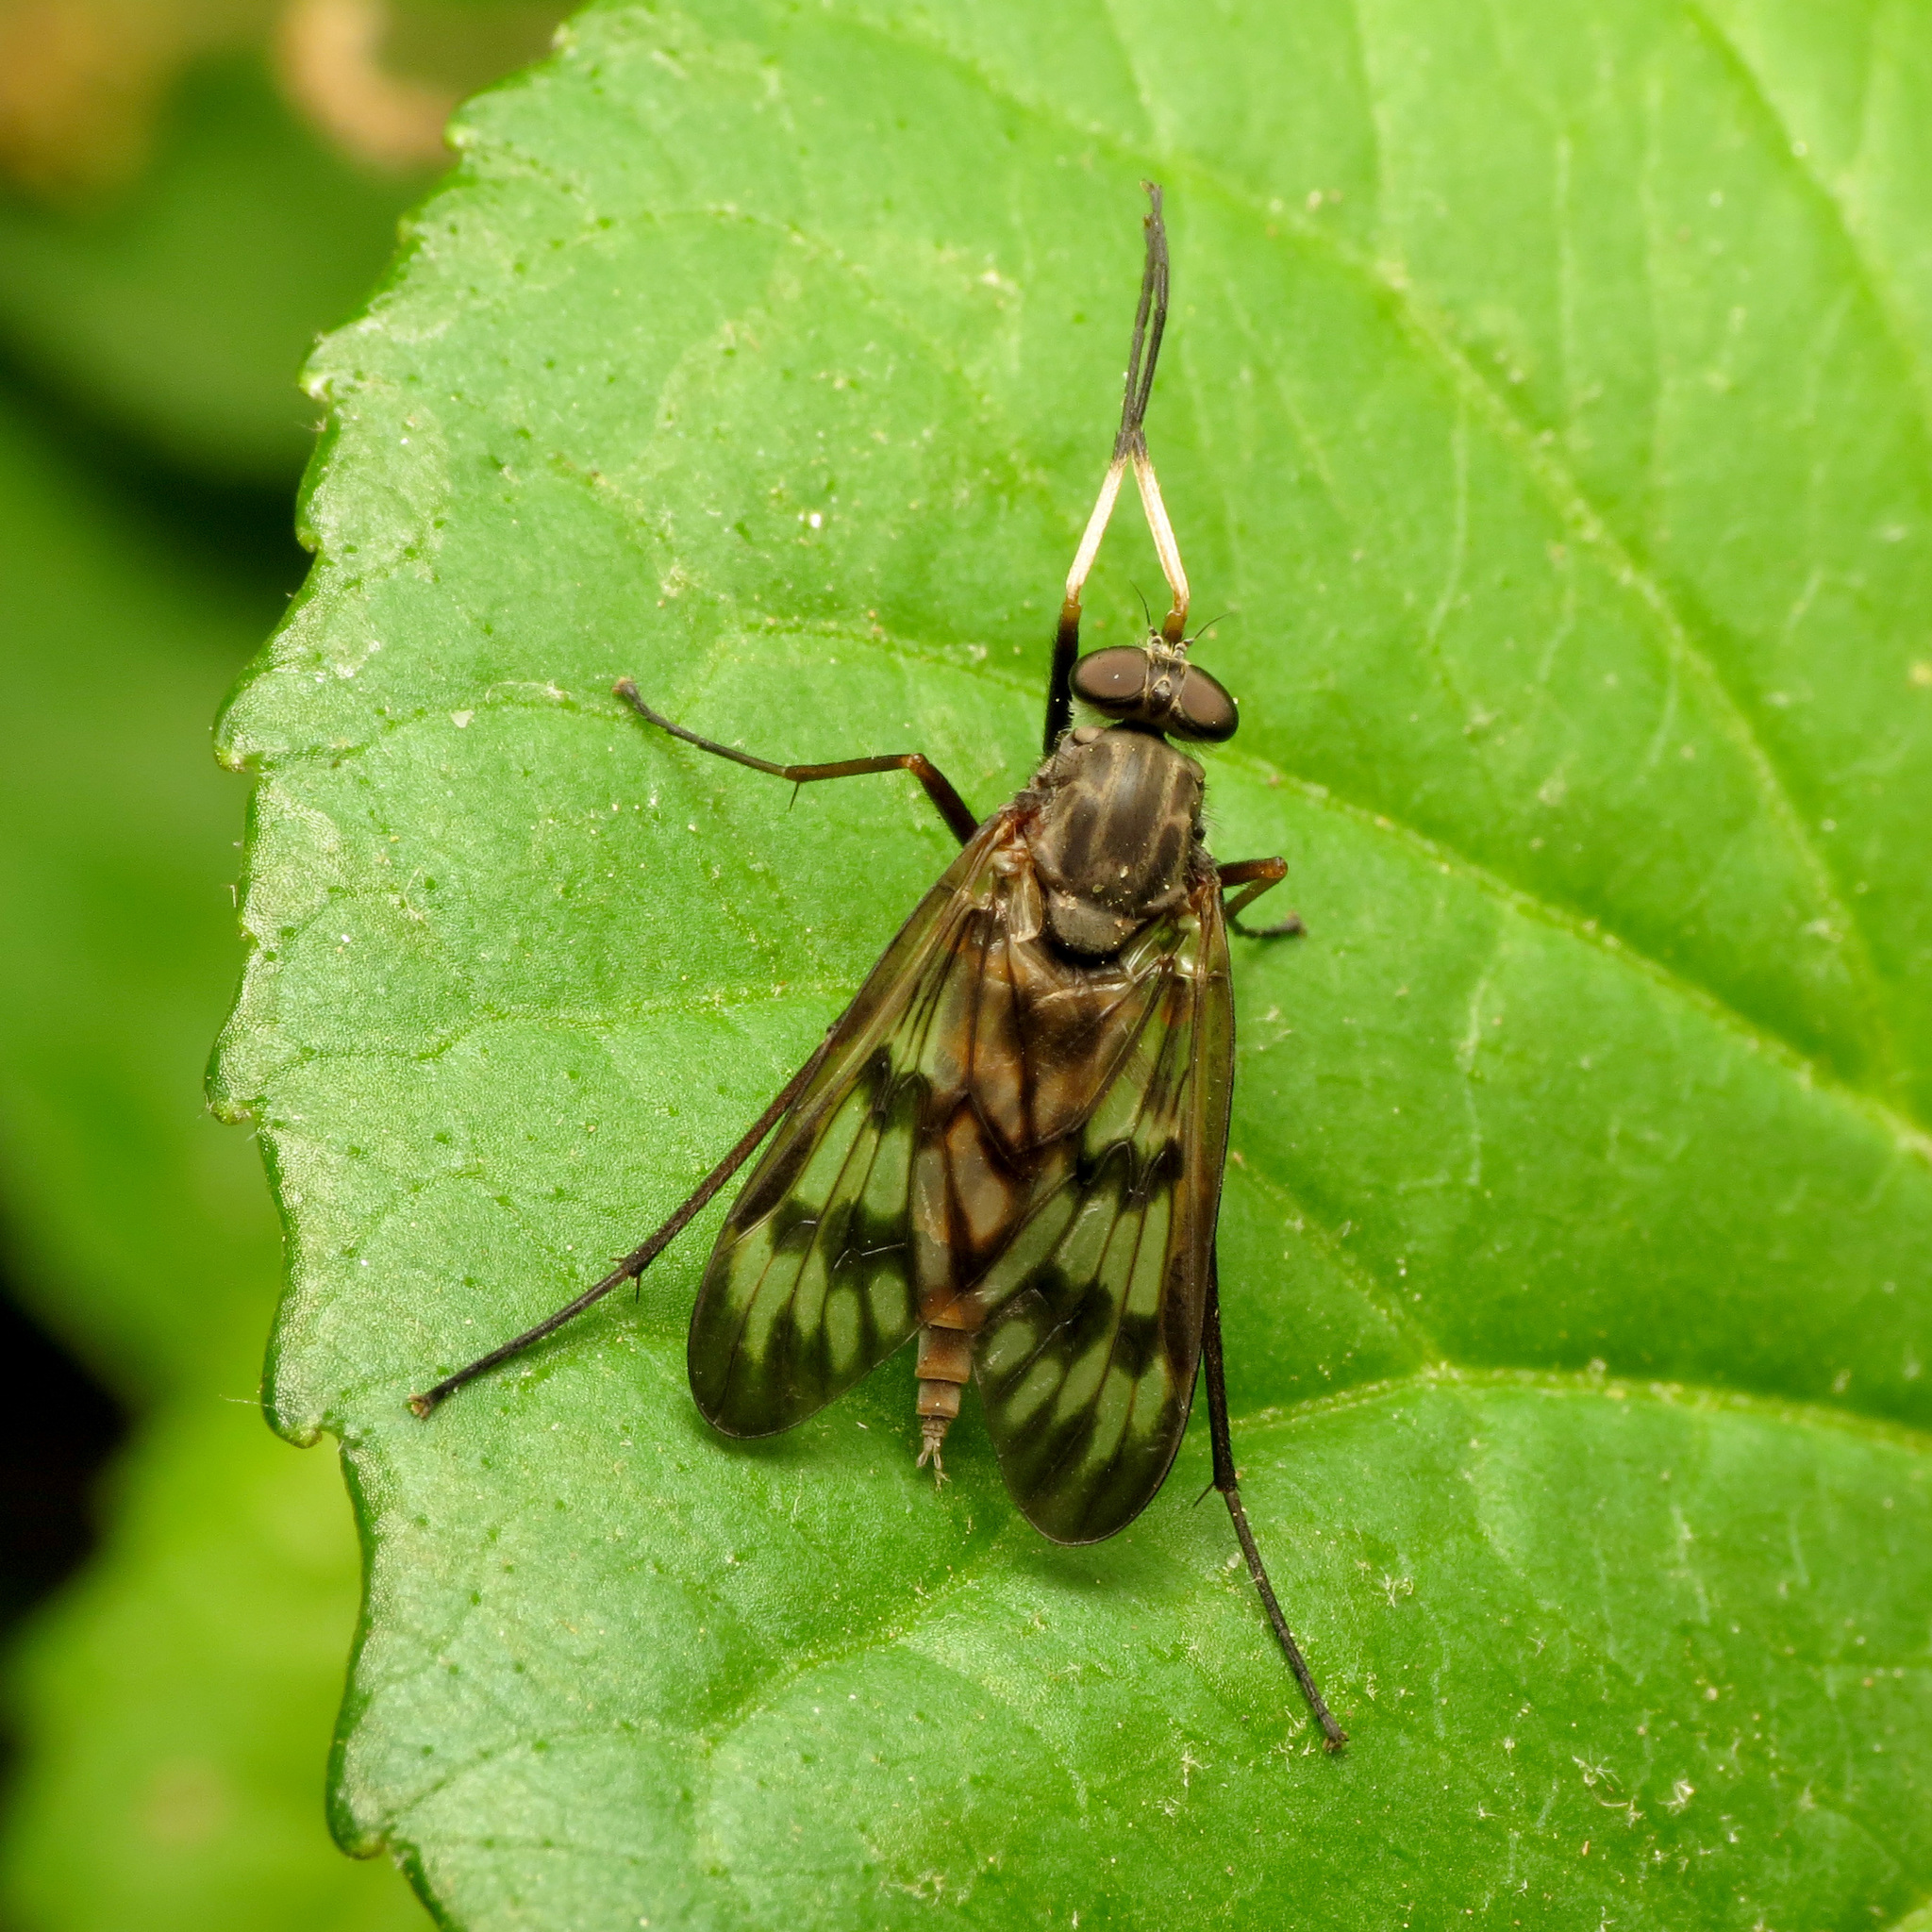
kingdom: Animalia
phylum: Arthropoda
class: Insecta
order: Diptera
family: Rhagionidae
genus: Rhagio
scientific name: Rhagio mystaceus
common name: Common snipe fly
